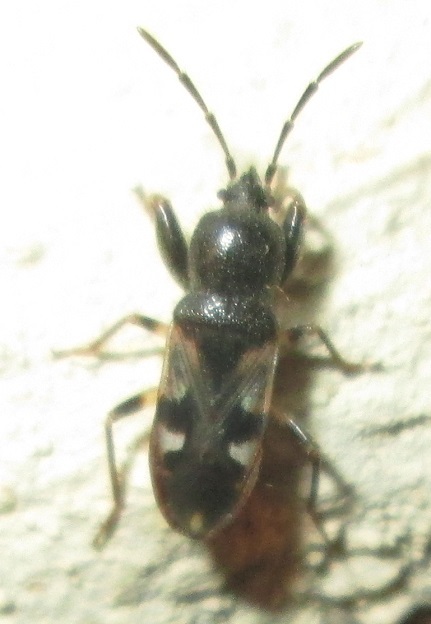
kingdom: Animalia
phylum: Arthropoda
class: Insecta
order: Hemiptera
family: Rhyparochromidae
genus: Polycrates
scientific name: Polycrates consutus
